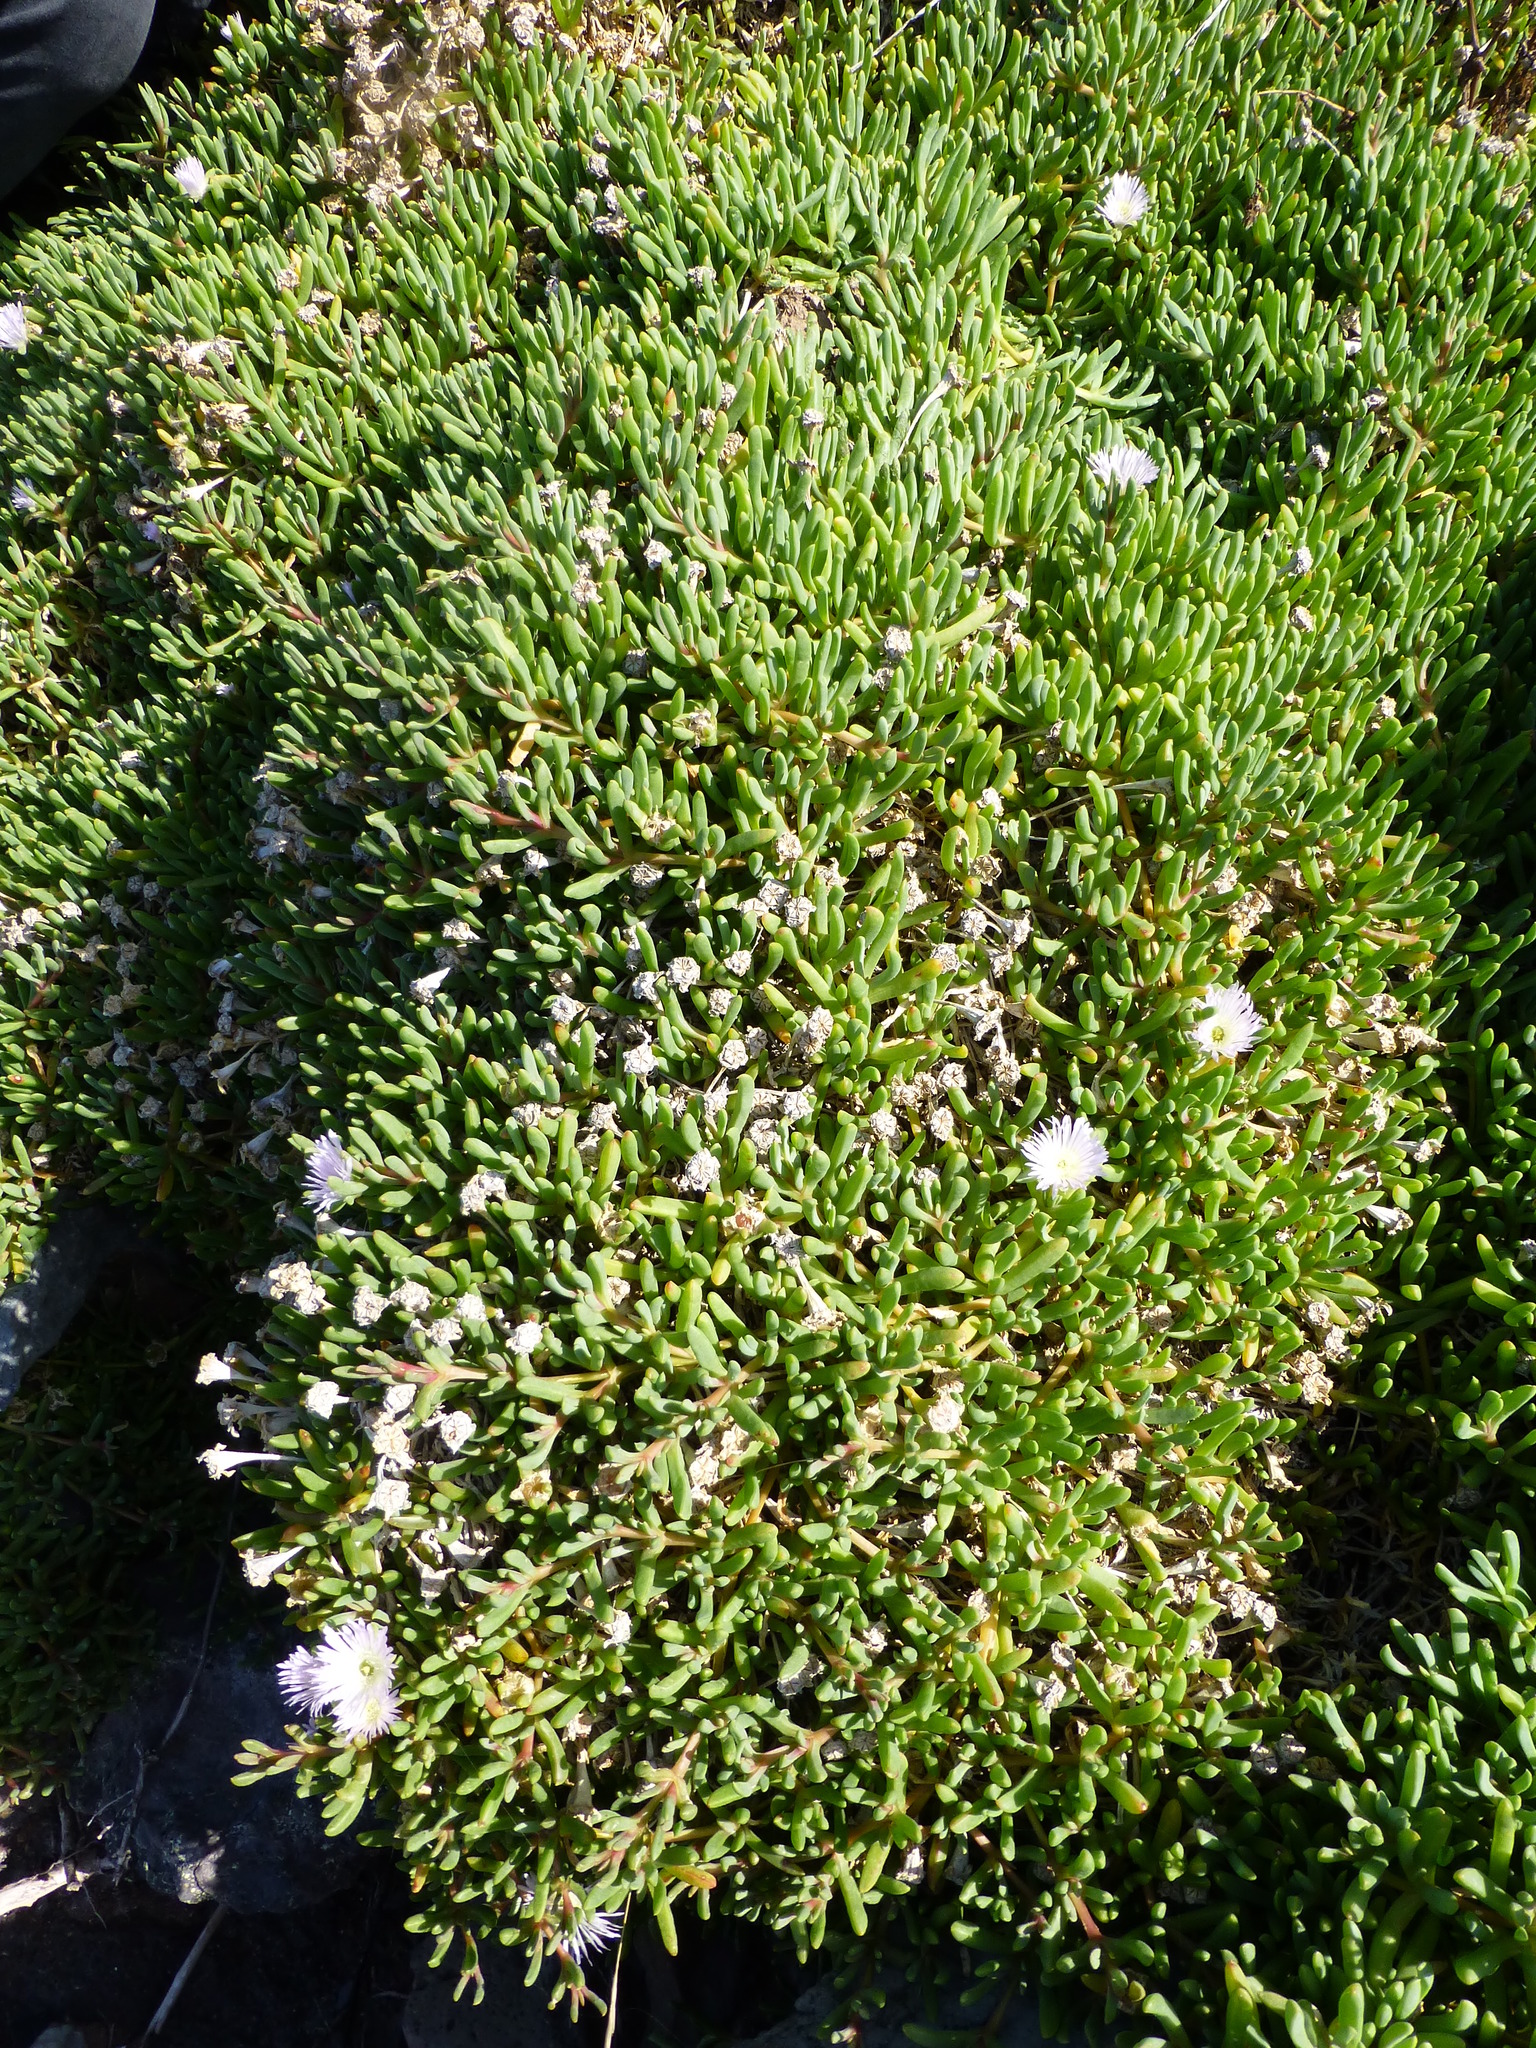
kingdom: Plantae
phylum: Tracheophyta
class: Magnoliopsida
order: Caryophyllales
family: Aizoaceae
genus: Disphyma
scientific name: Disphyma australe
